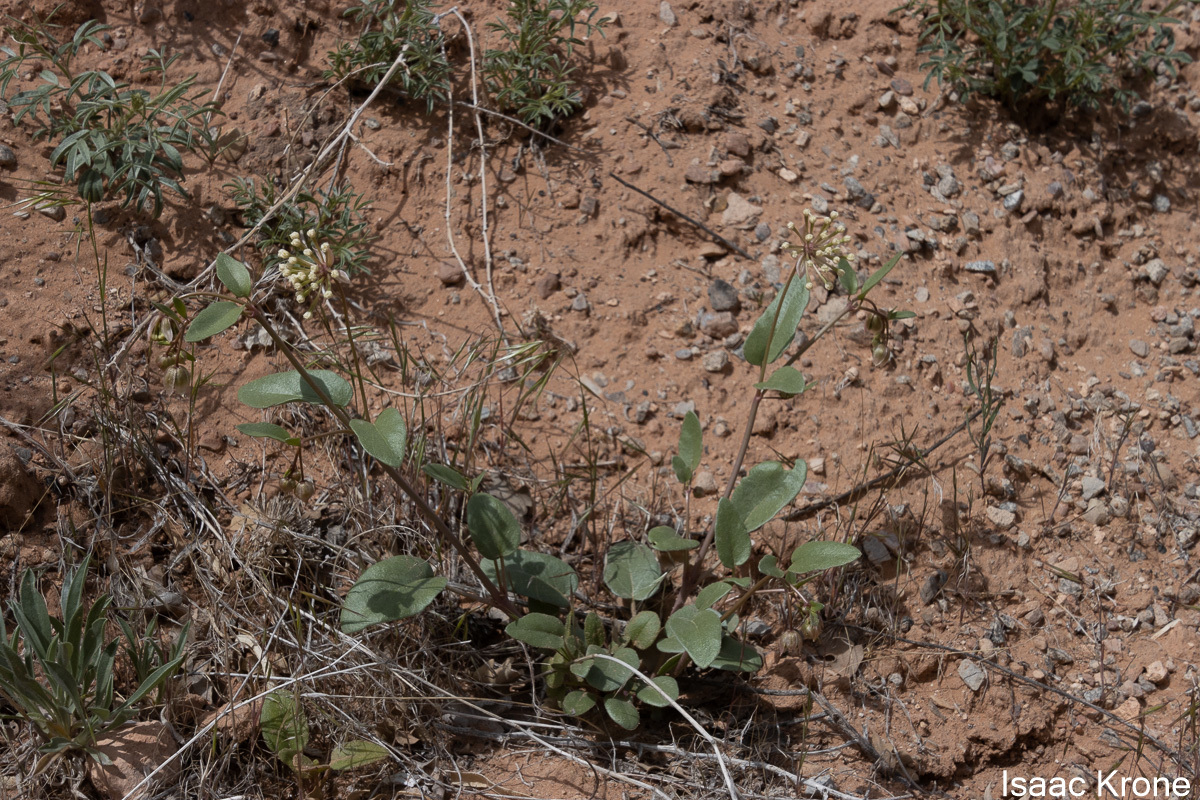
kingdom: Plantae
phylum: Tracheophyta
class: Magnoliopsida
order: Caryophyllales
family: Nyctaginaceae
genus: Abronia
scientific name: Abronia elliptica
